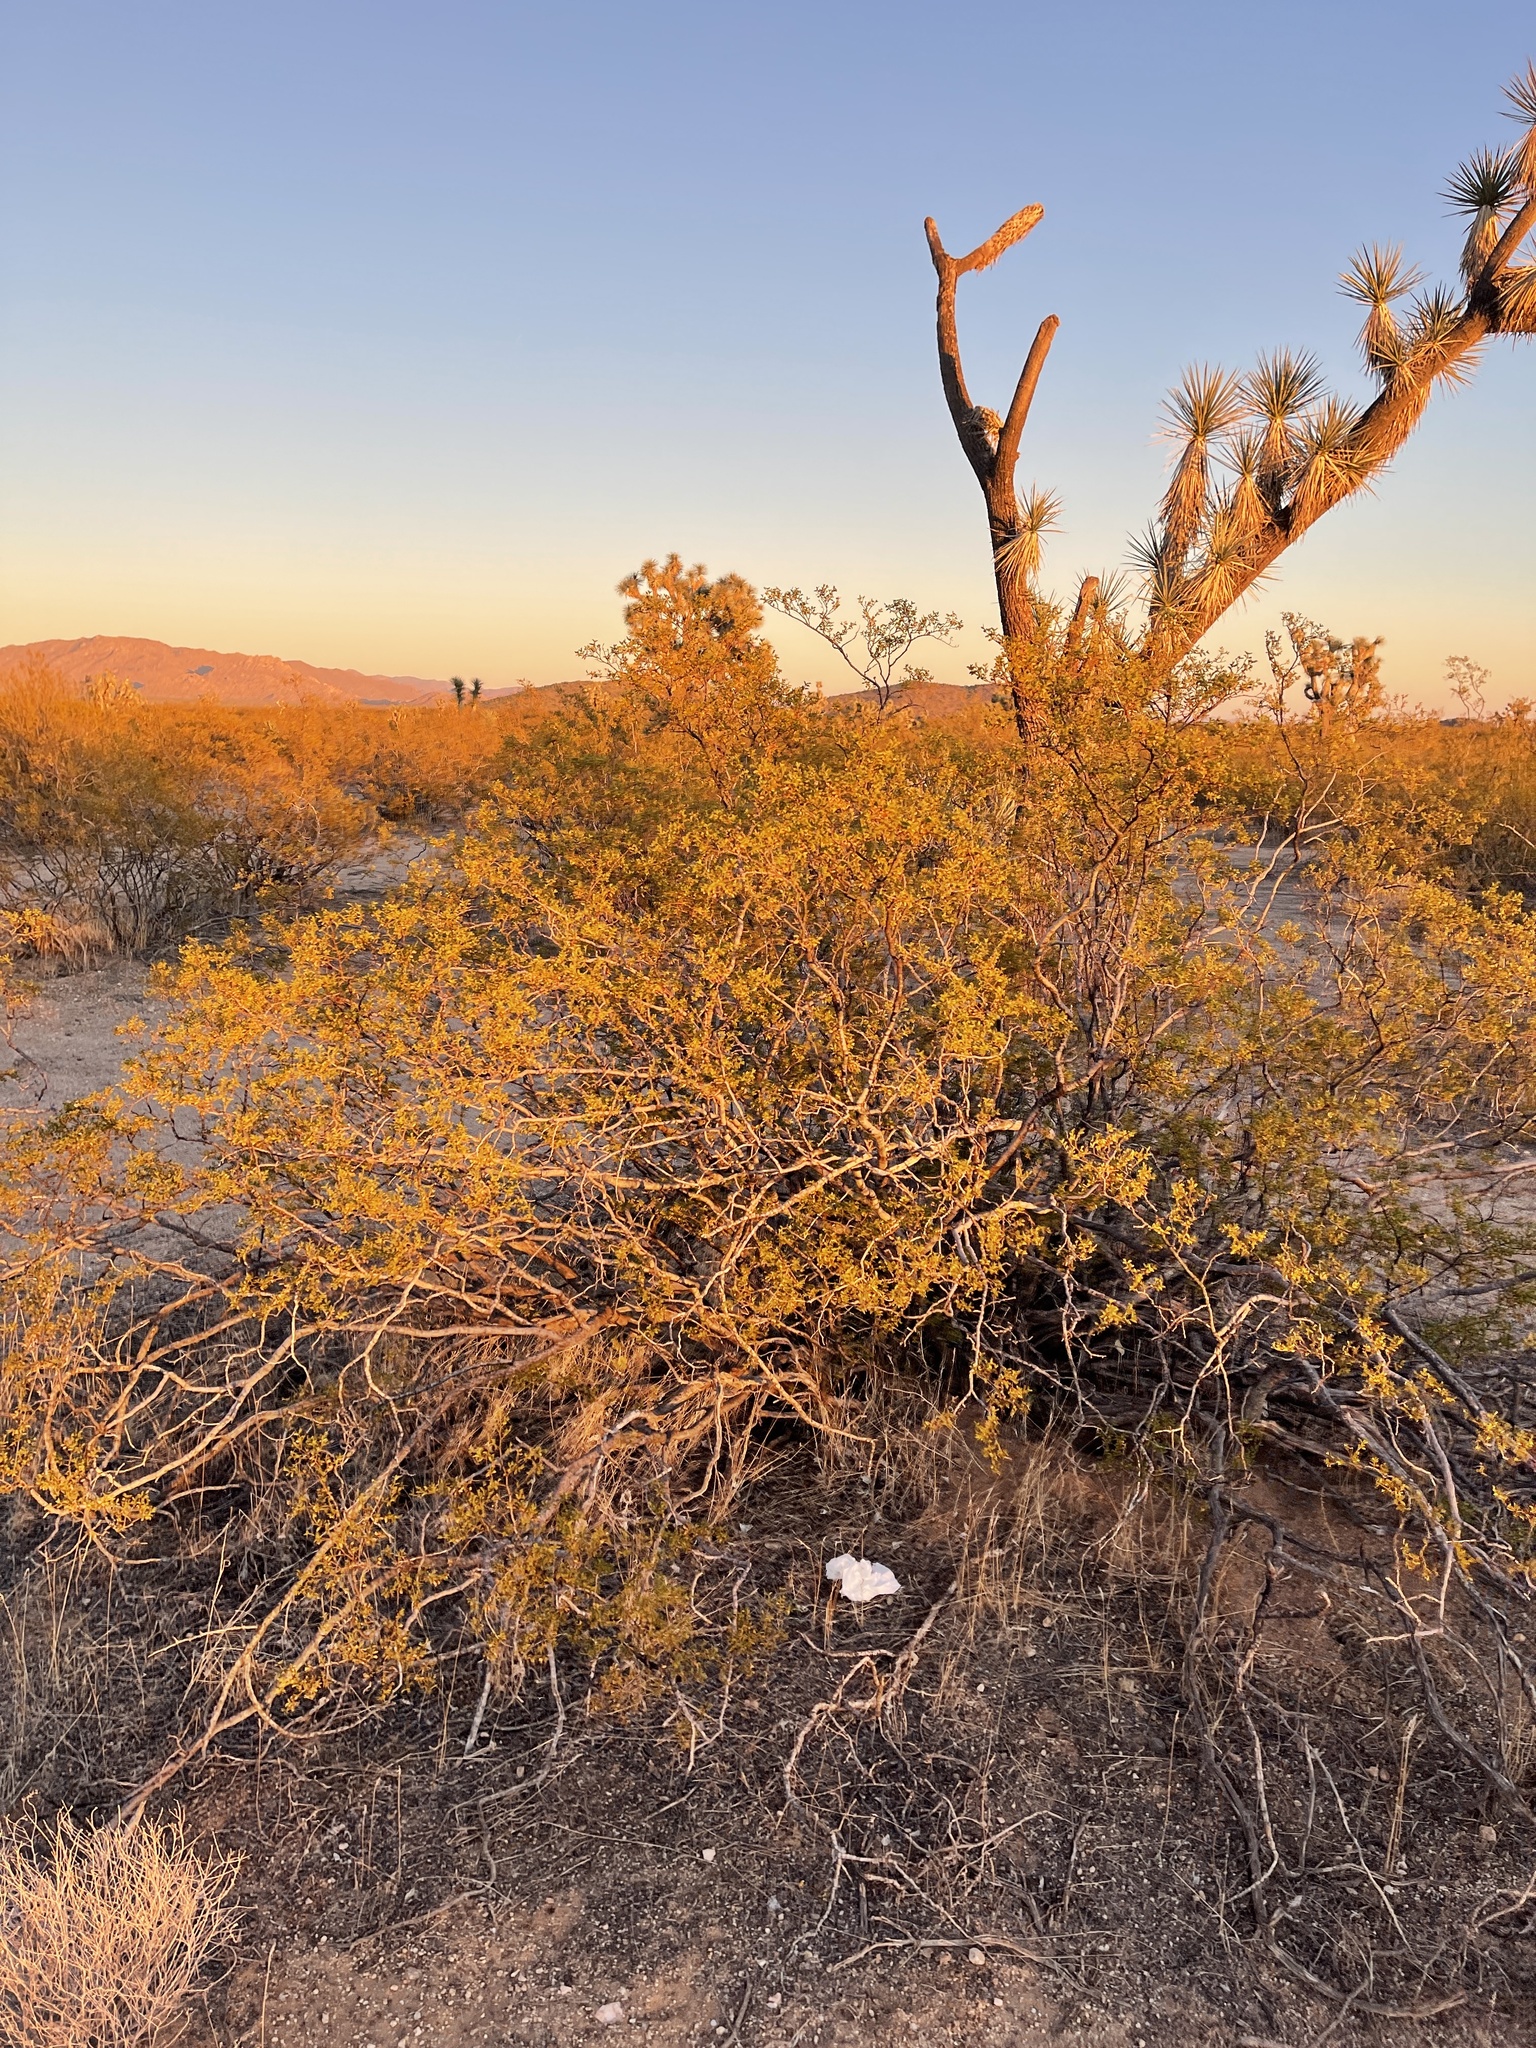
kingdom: Plantae
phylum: Tracheophyta
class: Magnoliopsida
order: Zygophyllales
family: Zygophyllaceae
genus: Larrea
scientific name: Larrea tridentata
